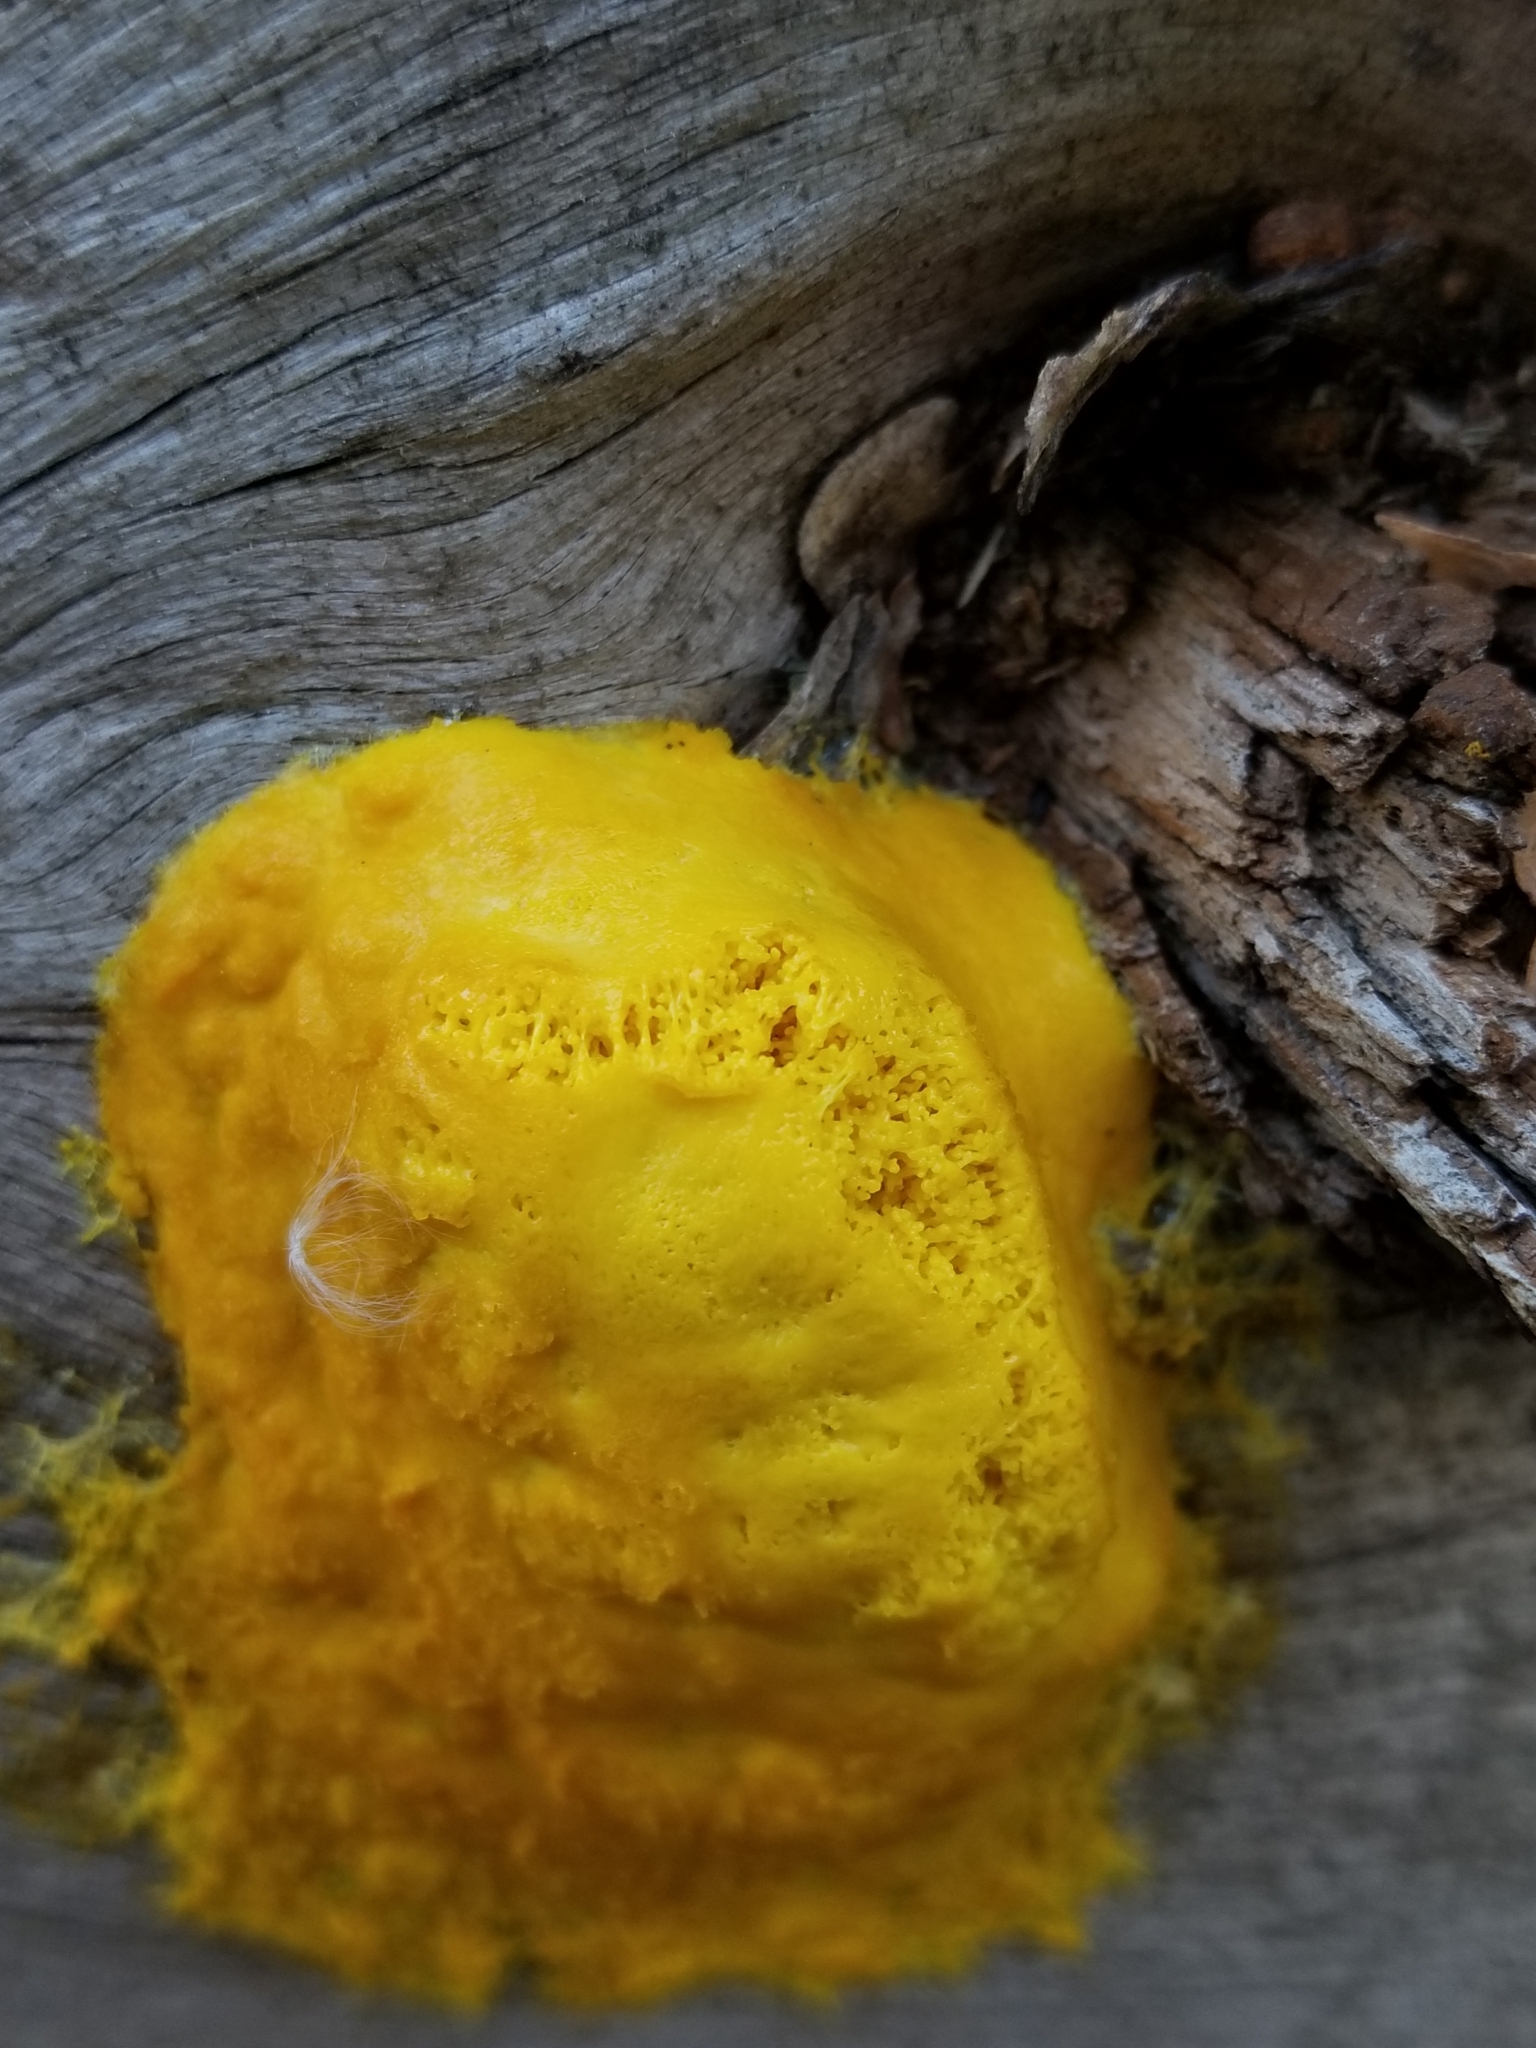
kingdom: Protozoa
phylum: Mycetozoa
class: Myxomycetes
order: Physarales
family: Physaraceae
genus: Fuligo
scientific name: Fuligo septica
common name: Dog vomit slime mold
